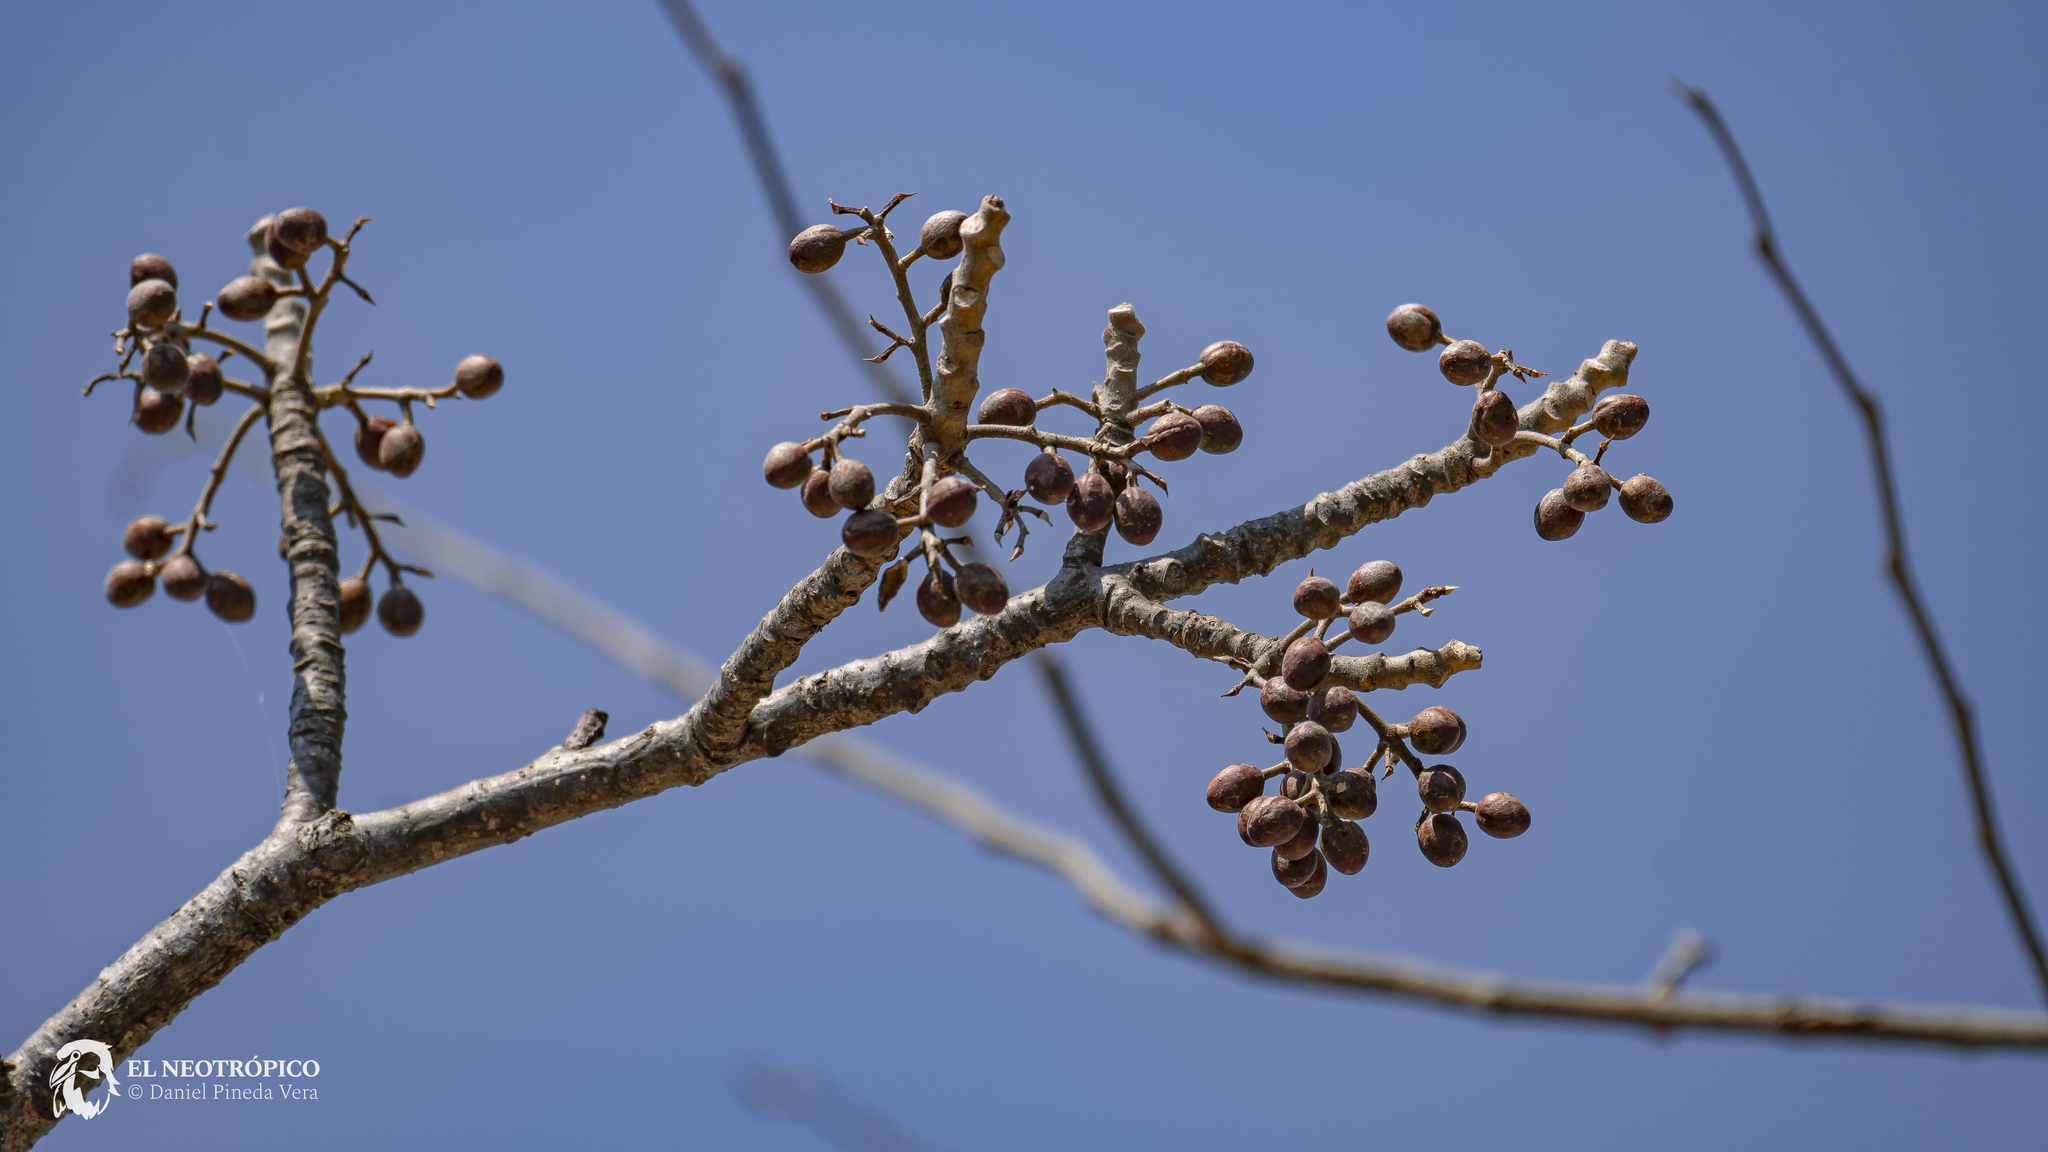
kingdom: Plantae
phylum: Tracheophyta
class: Magnoliopsida
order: Sapindales
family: Burseraceae
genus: Bursera
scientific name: Bursera simaruba
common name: Turpentine tree
